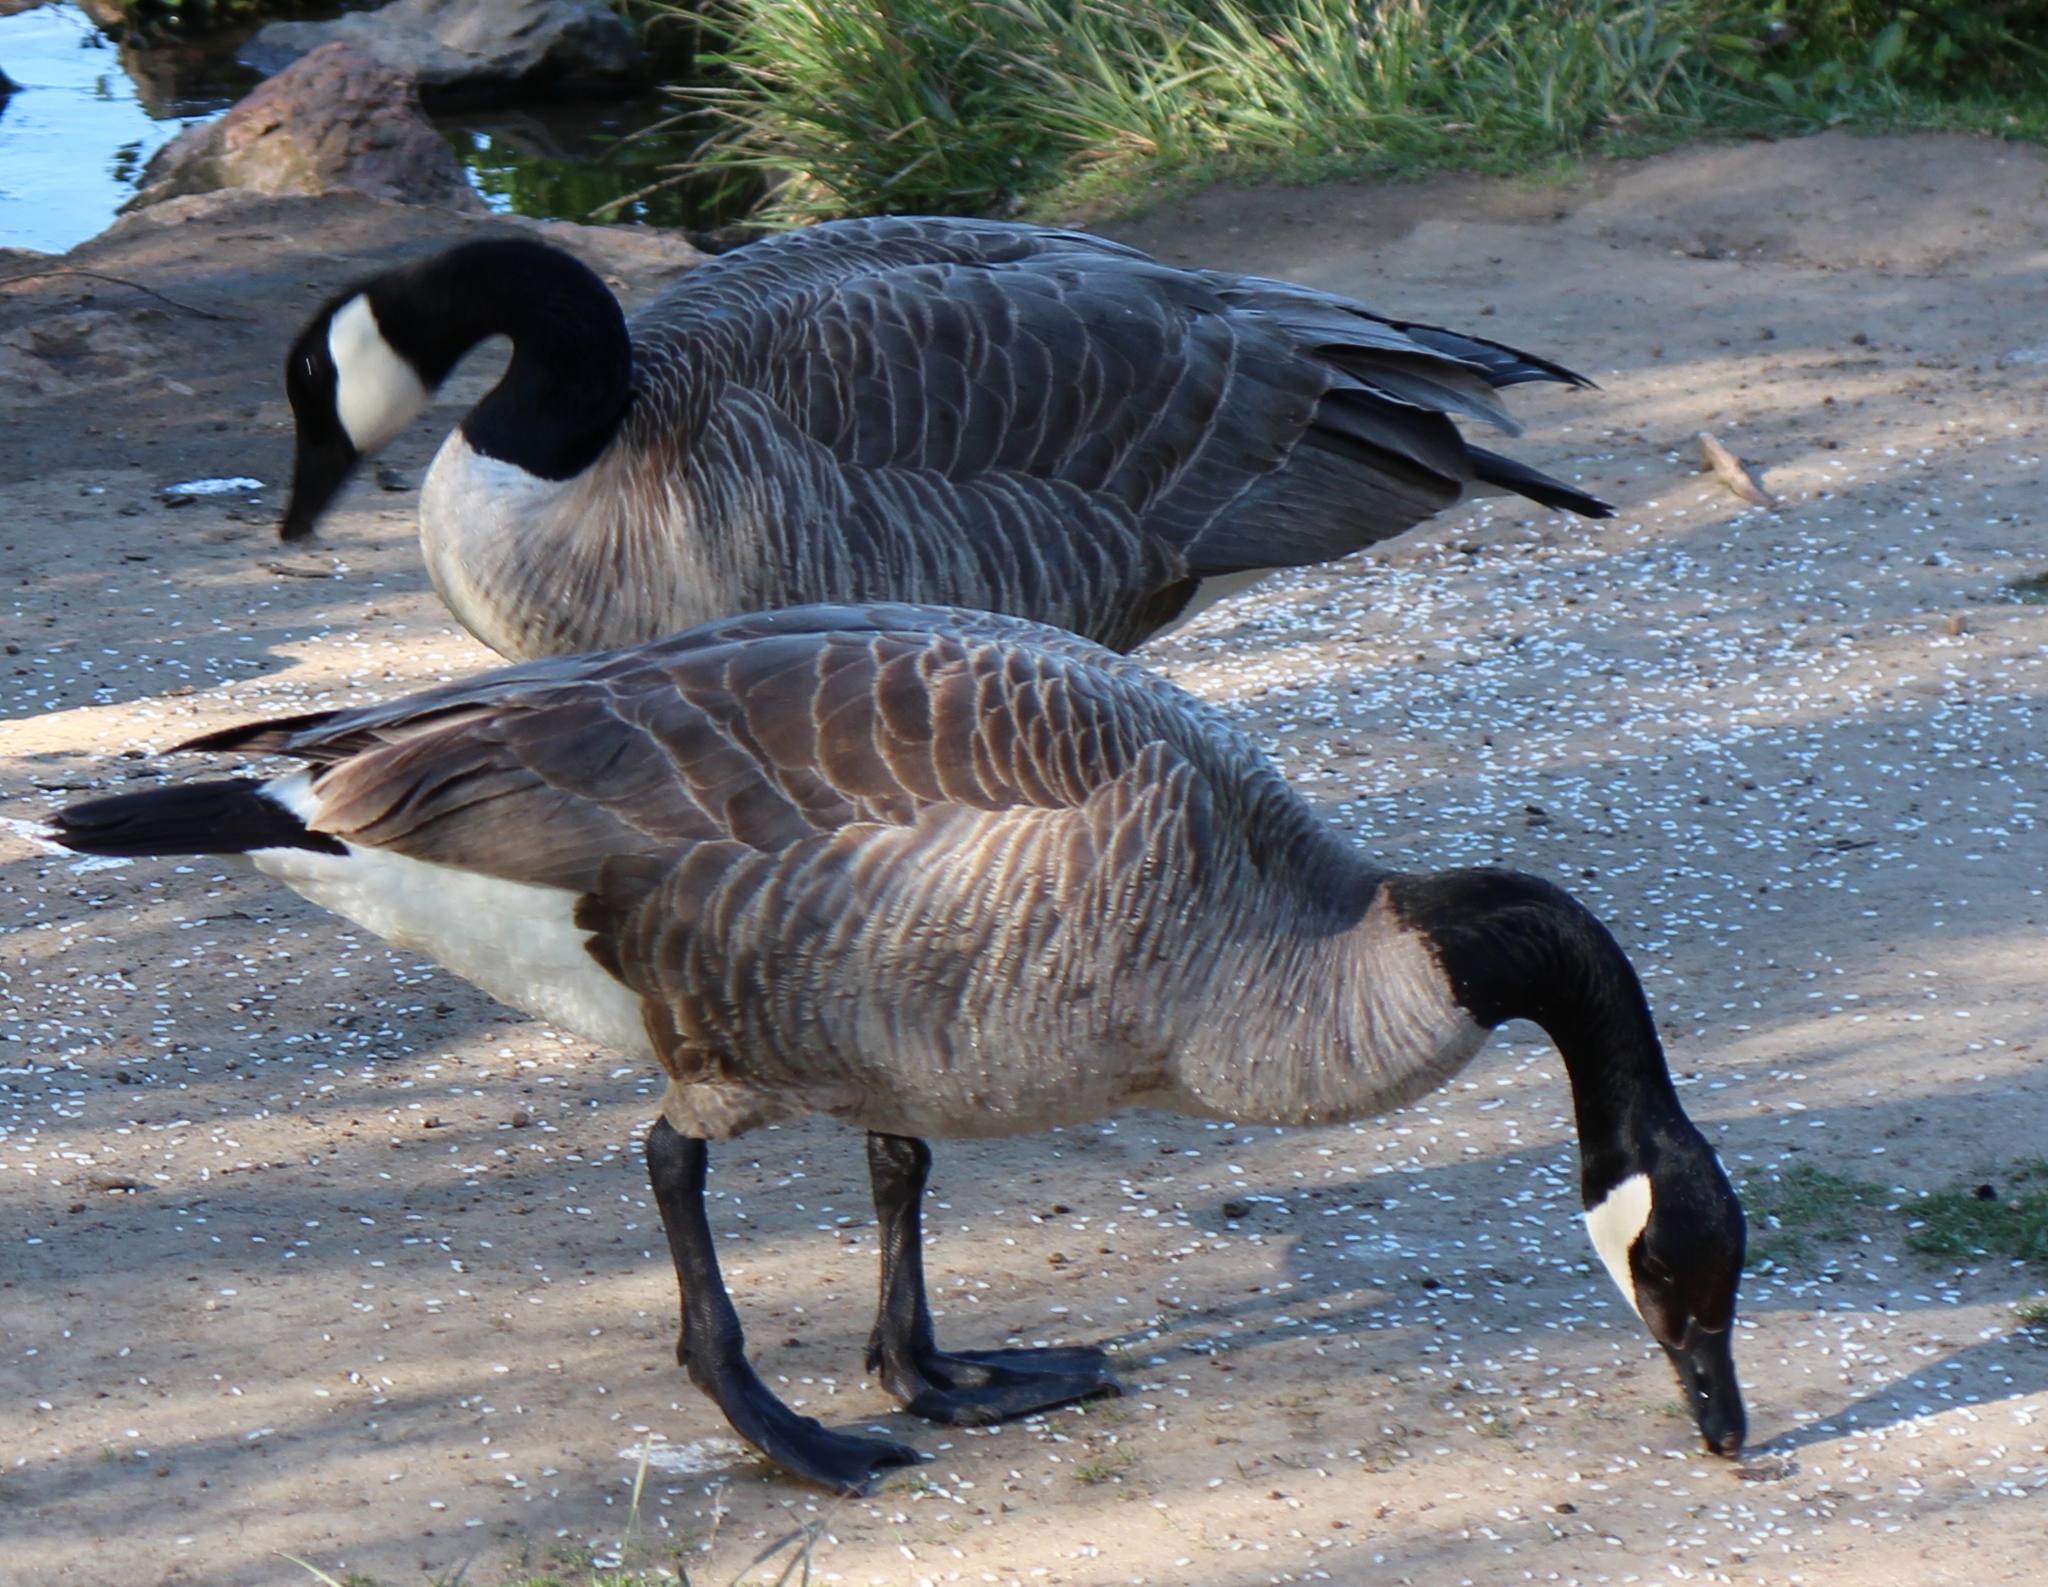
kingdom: Animalia
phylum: Chordata
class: Aves
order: Anseriformes
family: Anatidae
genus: Branta
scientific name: Branta canadensis
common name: Canada goose
